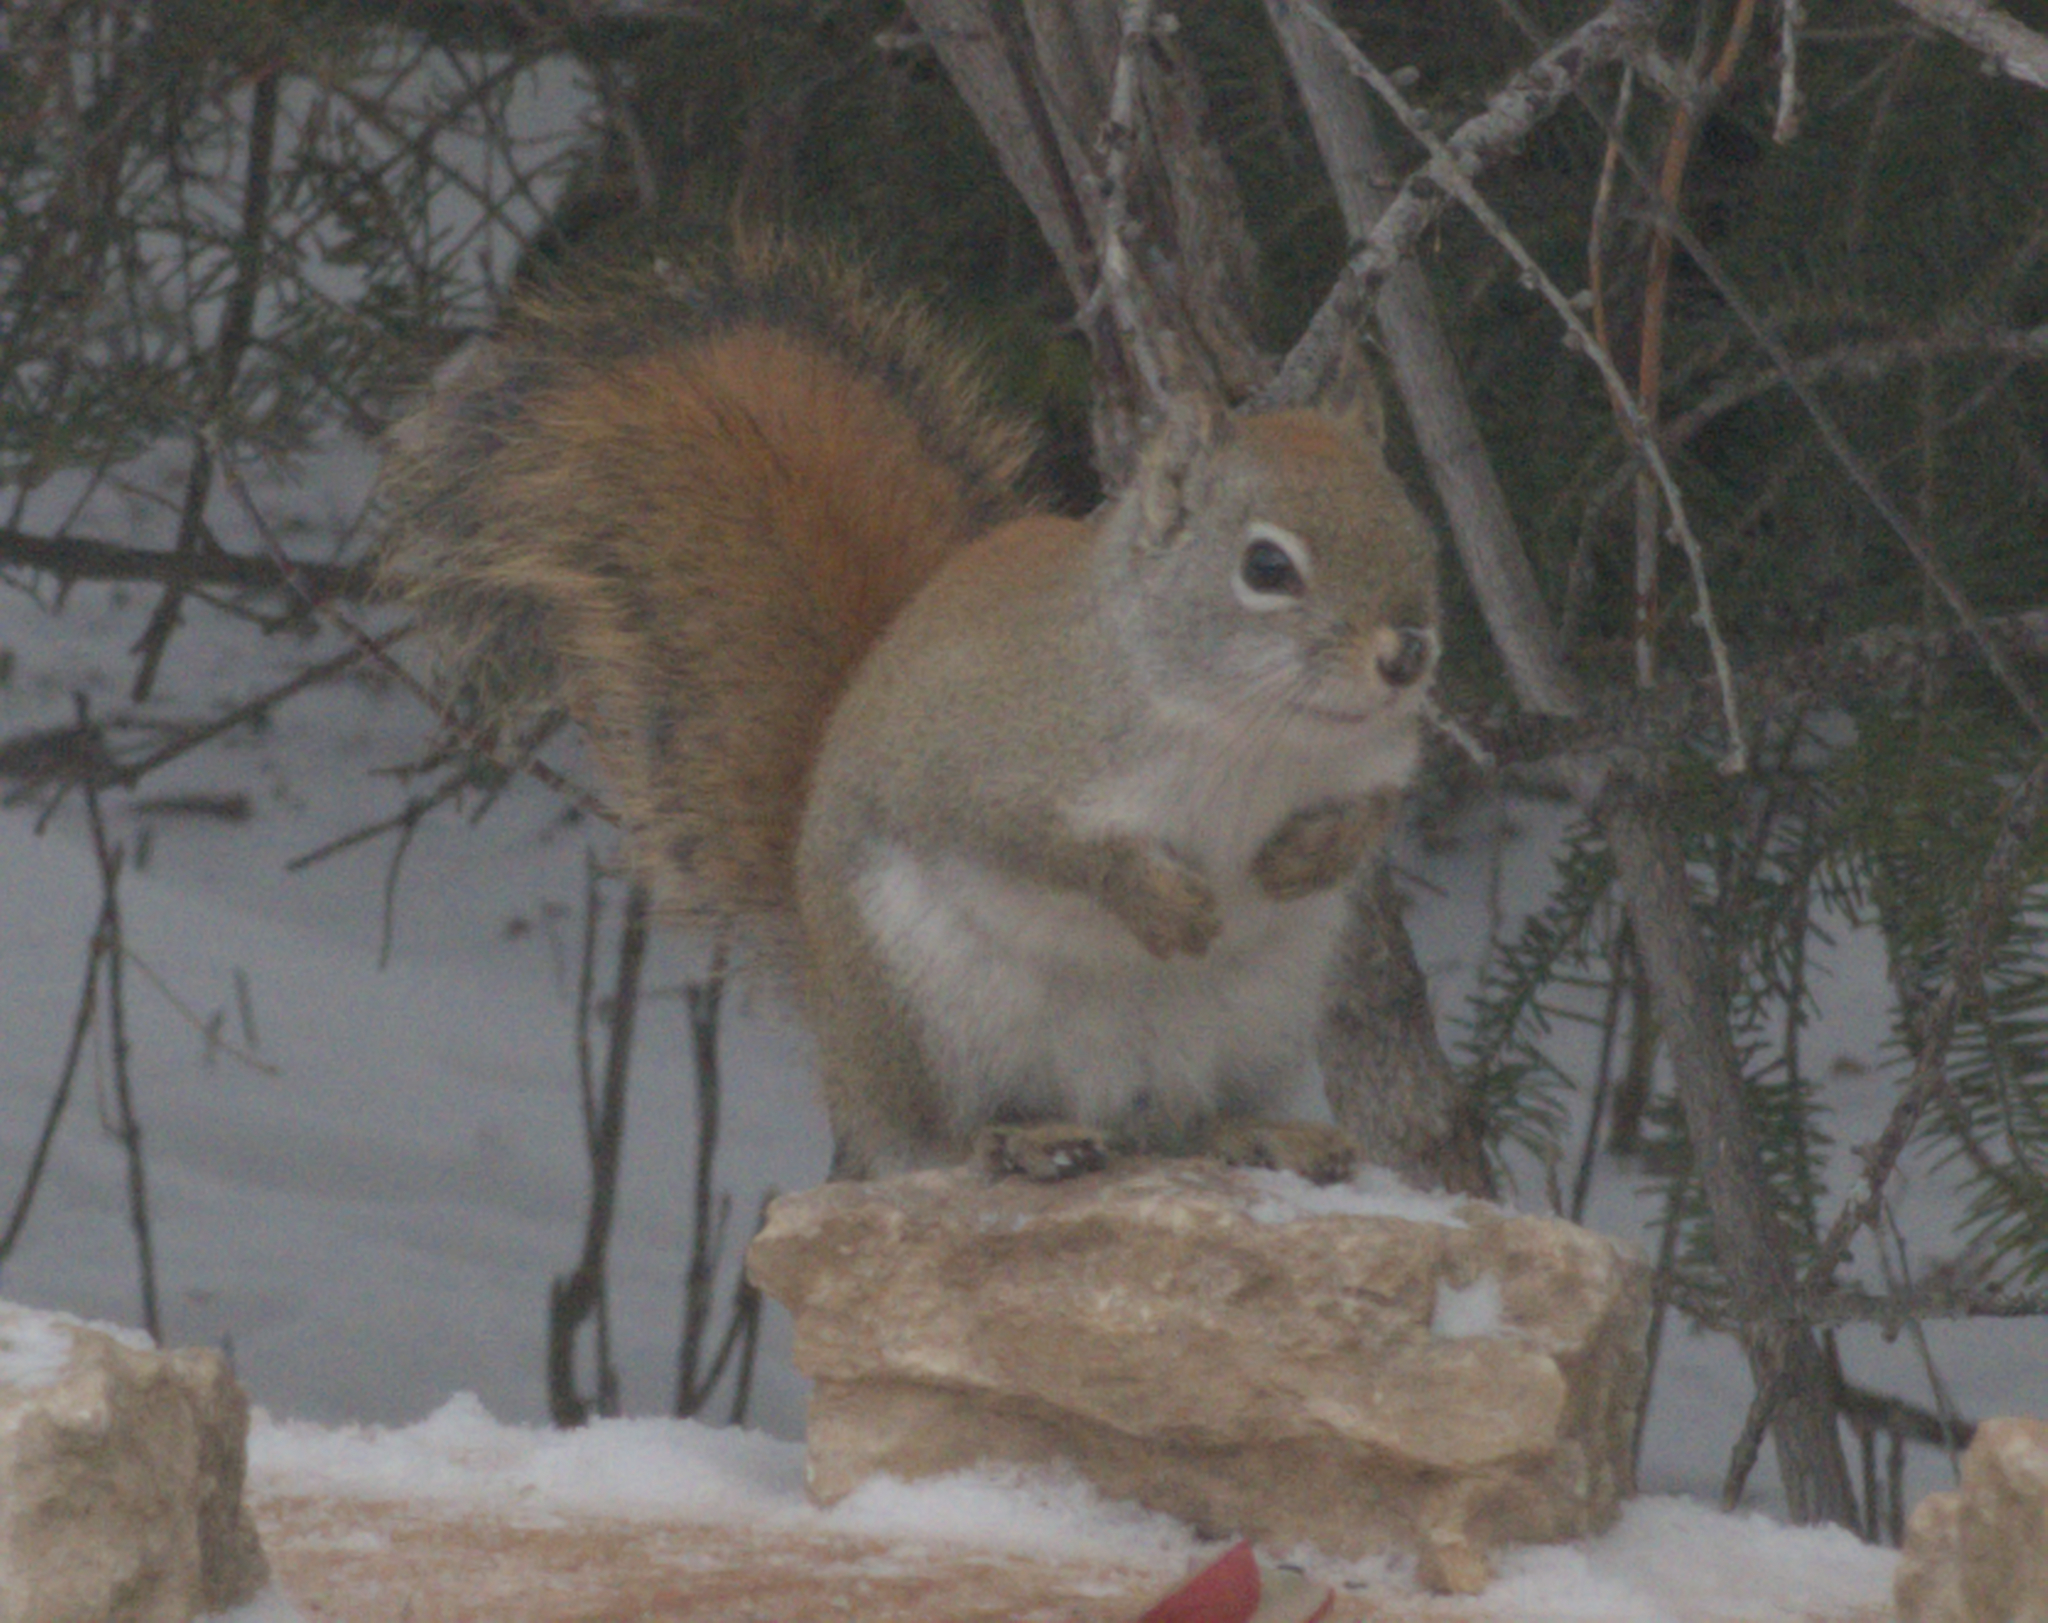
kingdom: Animalia
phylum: Chordata
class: Mammalia
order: Rodentia
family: Sciuridae
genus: Tamiasciurus
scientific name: Tamiasciurus hudsonicus
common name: Red squirrel
